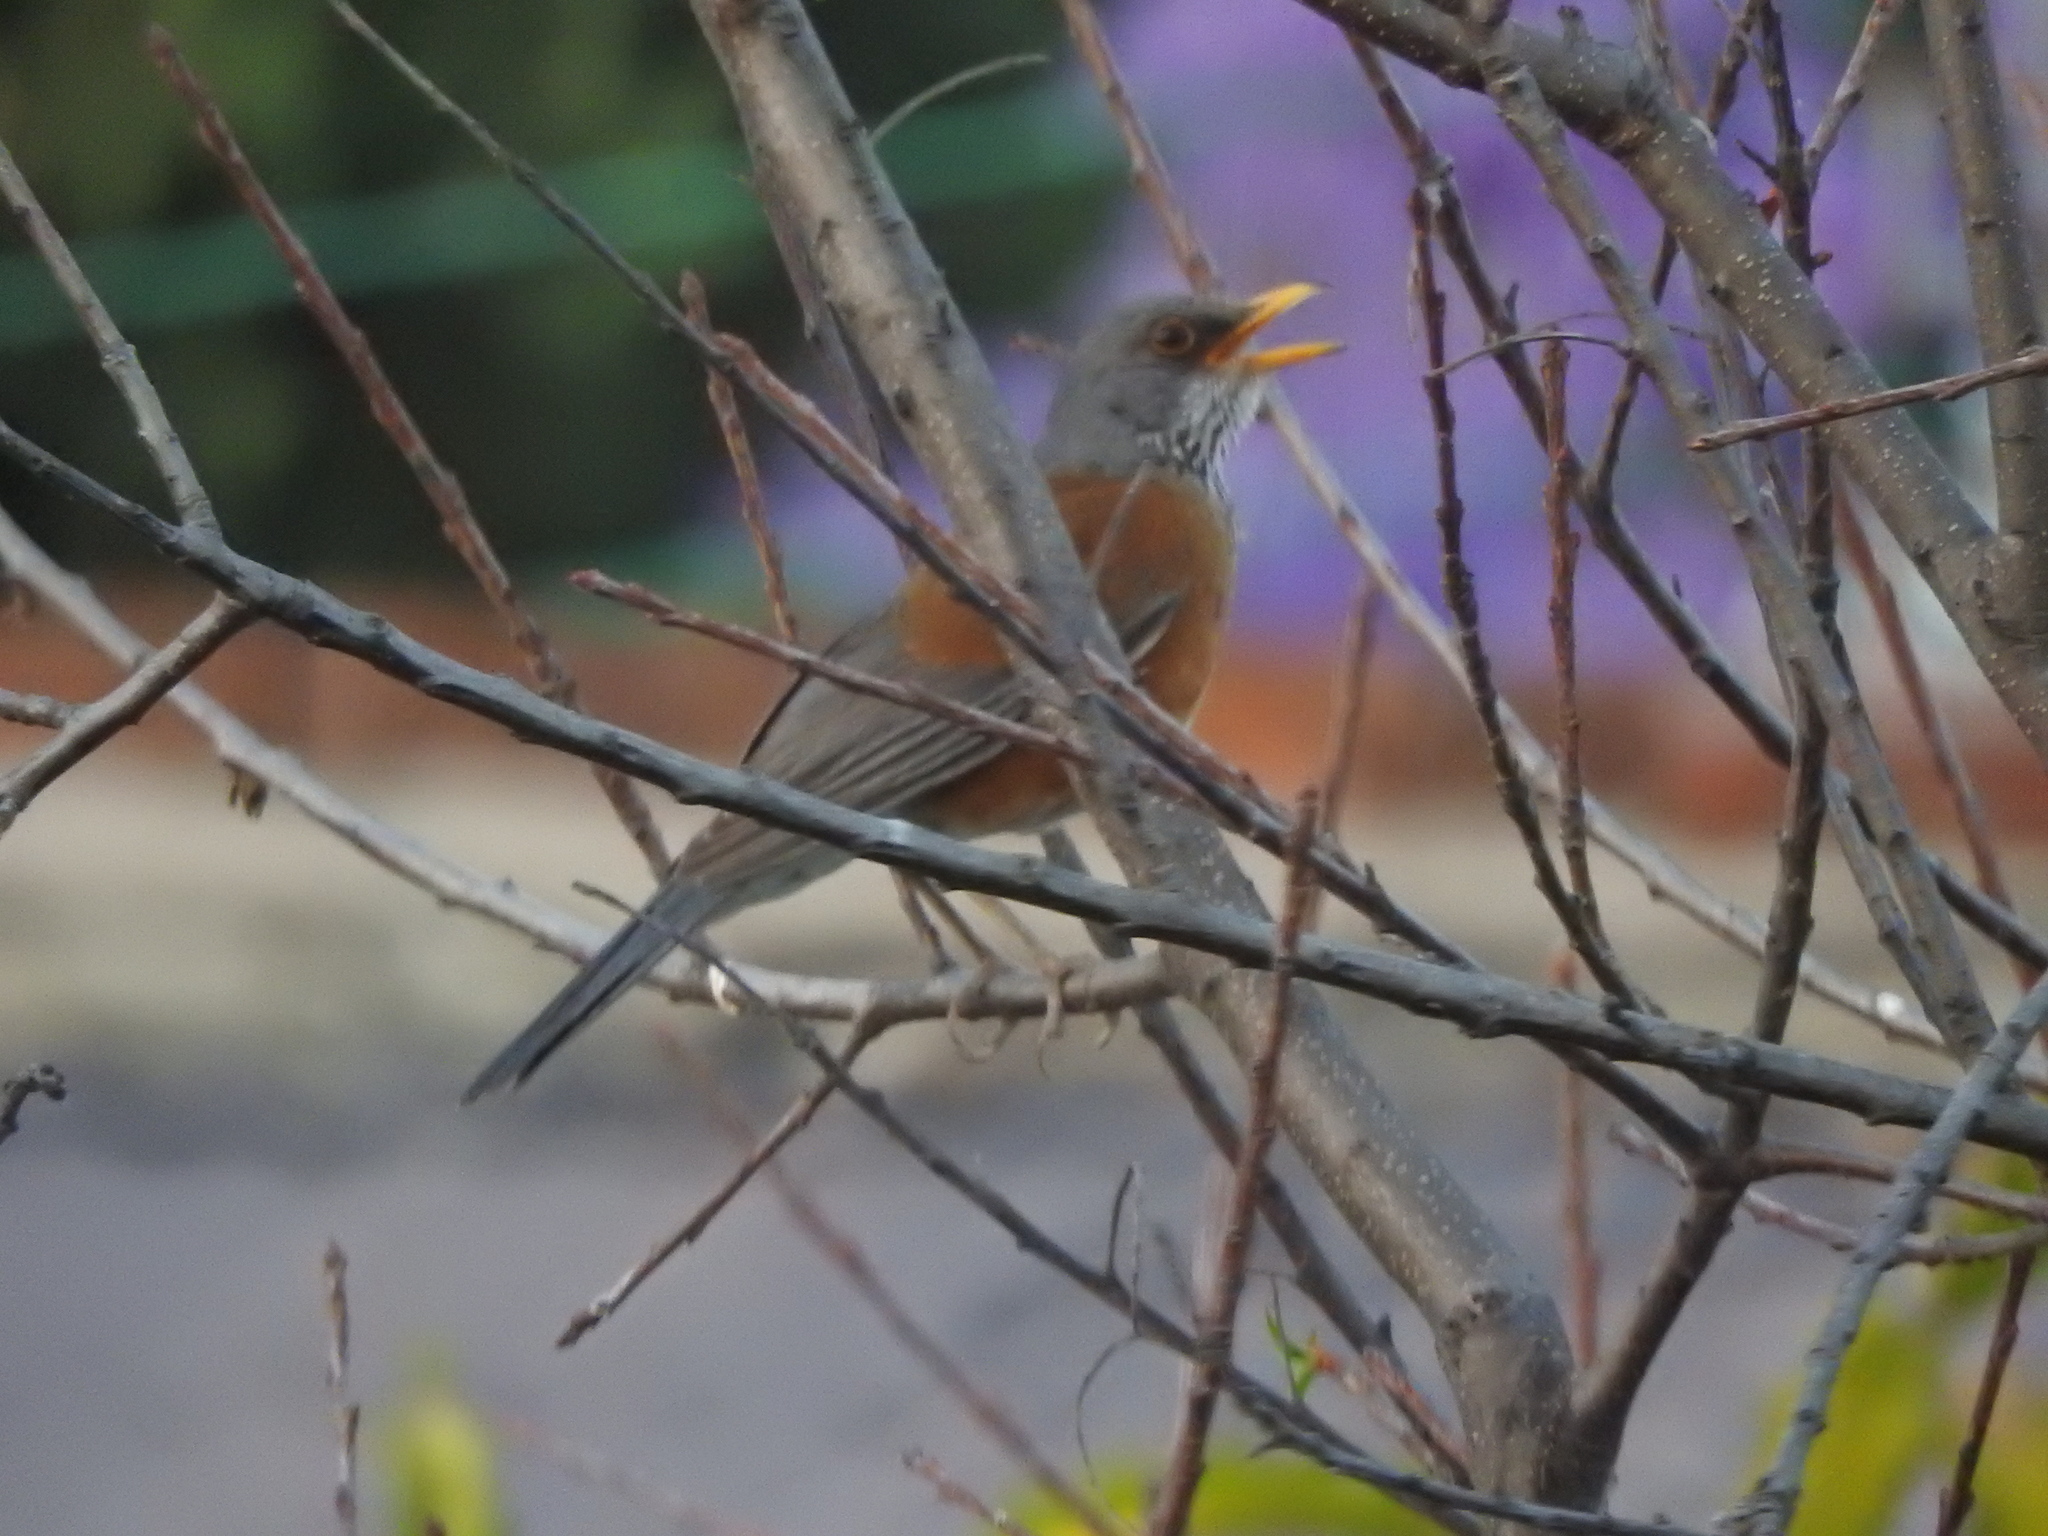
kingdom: Animalia
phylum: Chordata
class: Aves
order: Passeriformes
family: Turdidae
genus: Turdus
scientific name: Turdus rufopalliatus
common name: Rufous-backed robin
